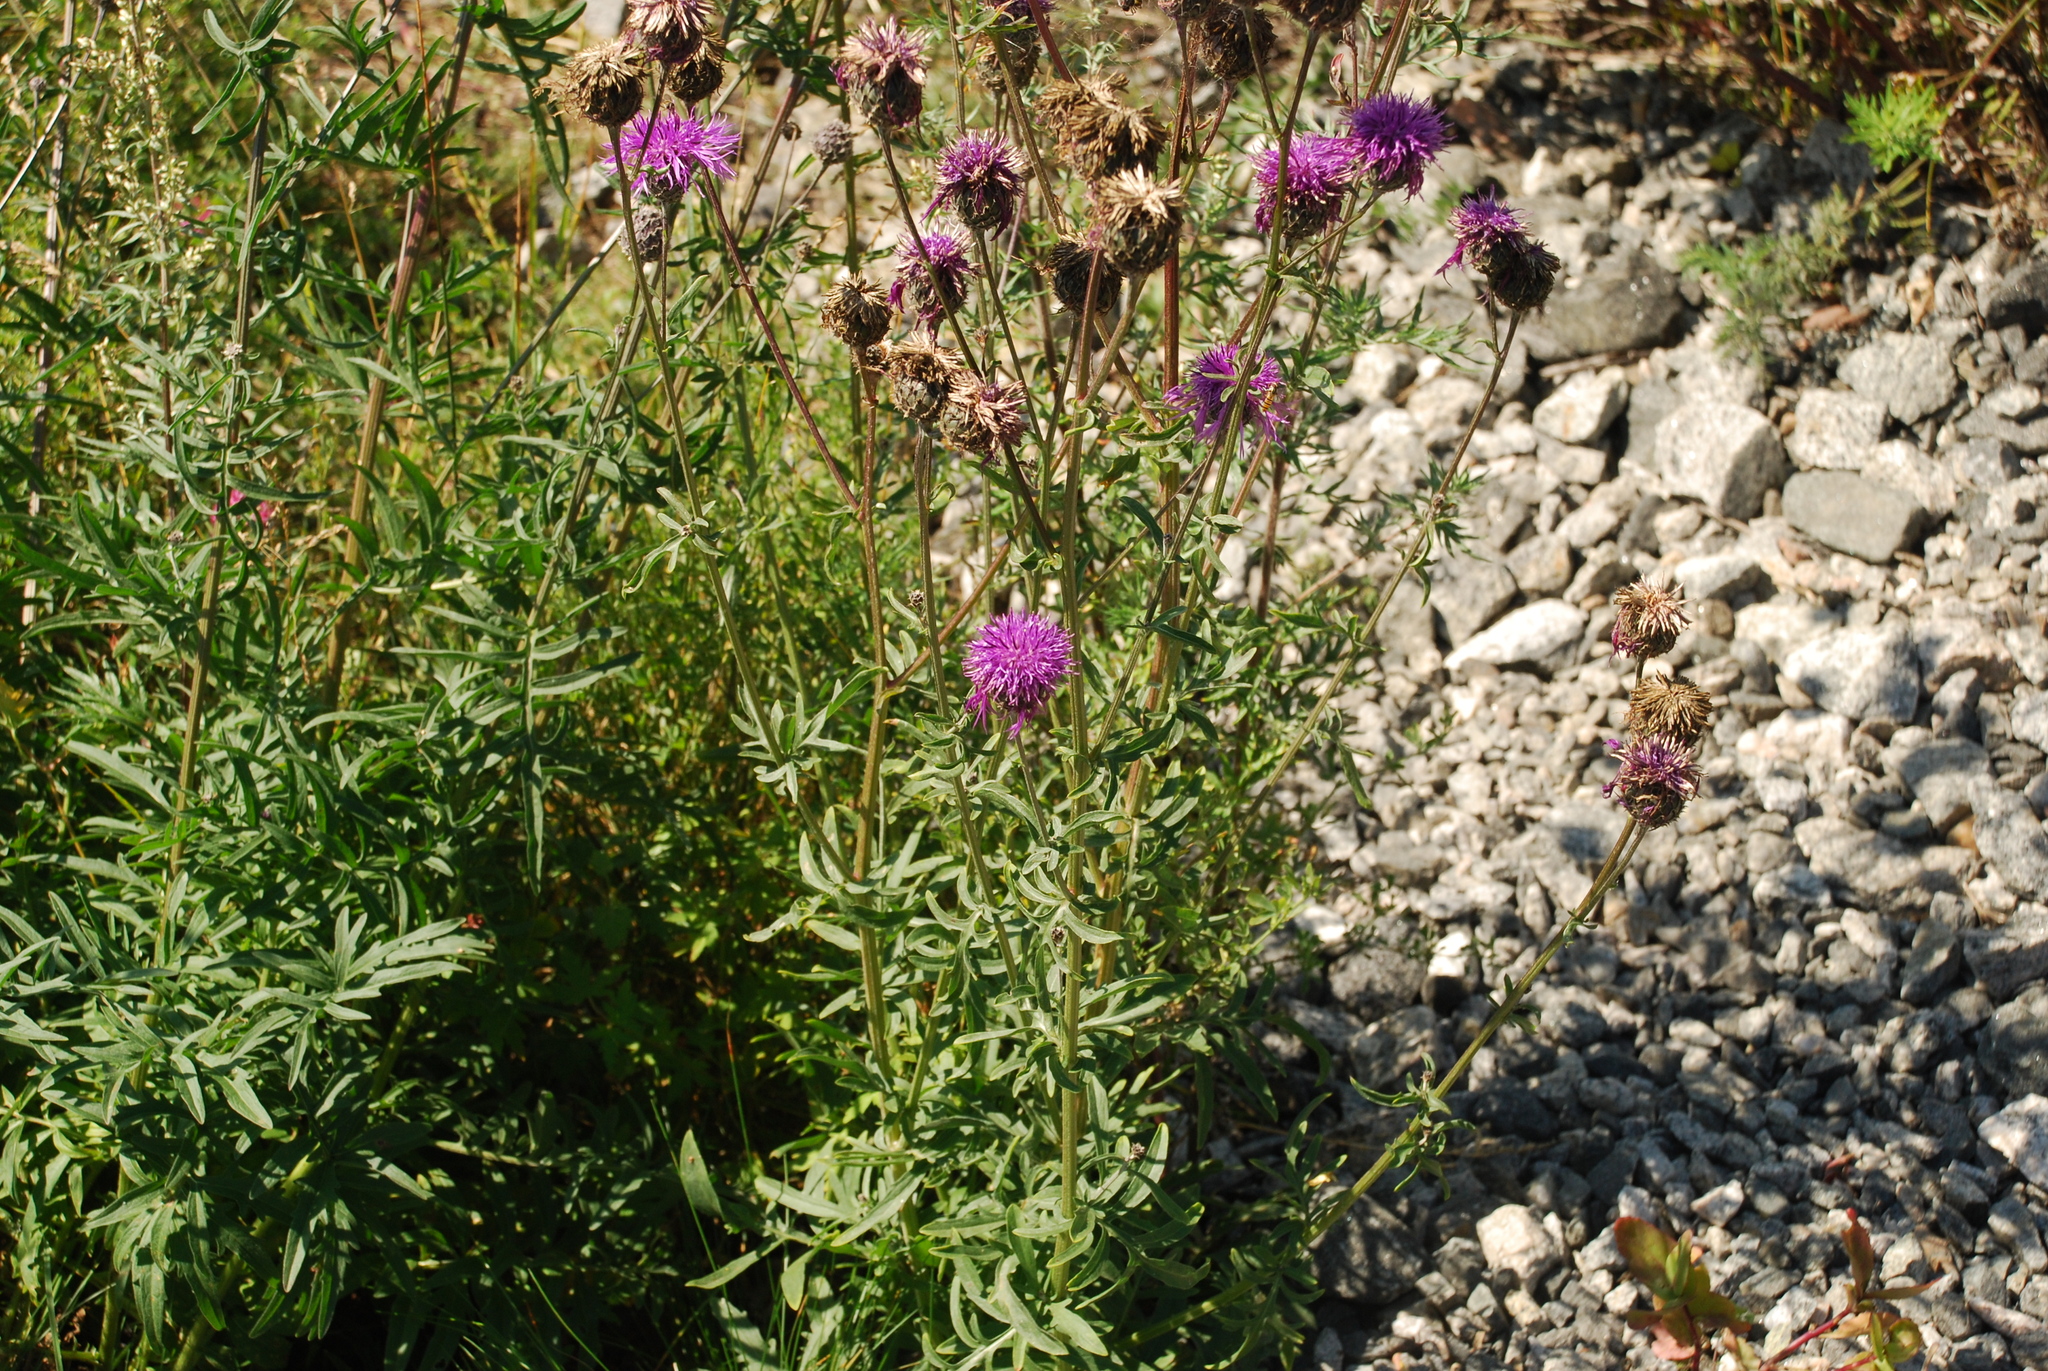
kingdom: Plantae
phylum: Tracheophyta
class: Magnoliopsida
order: Asterales
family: Asteraceae
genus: Centaurea
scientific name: Centaurea scabiosa
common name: Greater knapweed
